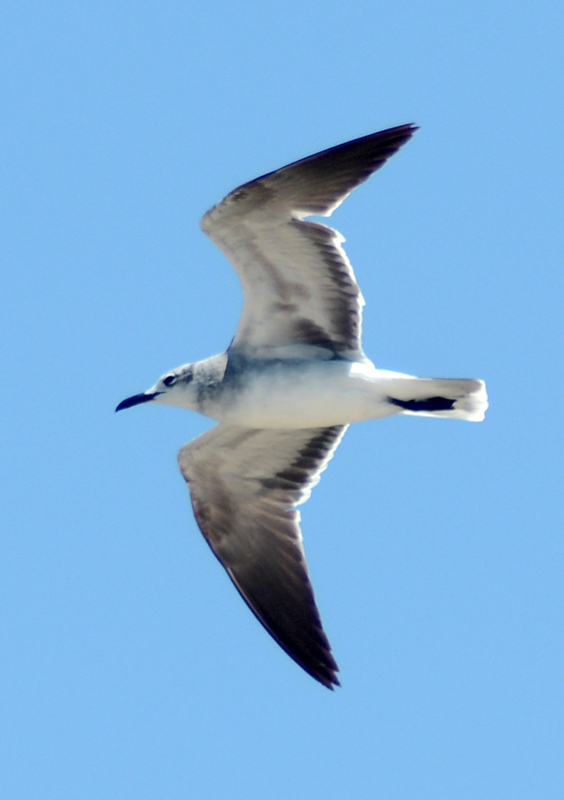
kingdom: Animalia
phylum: Chordata
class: Aves
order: Charadriiformes
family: Laridae
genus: Leucophaeus
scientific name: Leucophaeus atricilla
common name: Laughing gull
